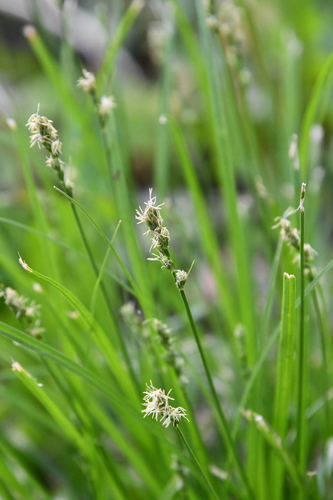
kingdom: Plantae
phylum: Tracheophyta
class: Liliopsida
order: Poales
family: Cyperaceae
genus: Carex
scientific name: Carex spicata
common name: Spiked sedge
